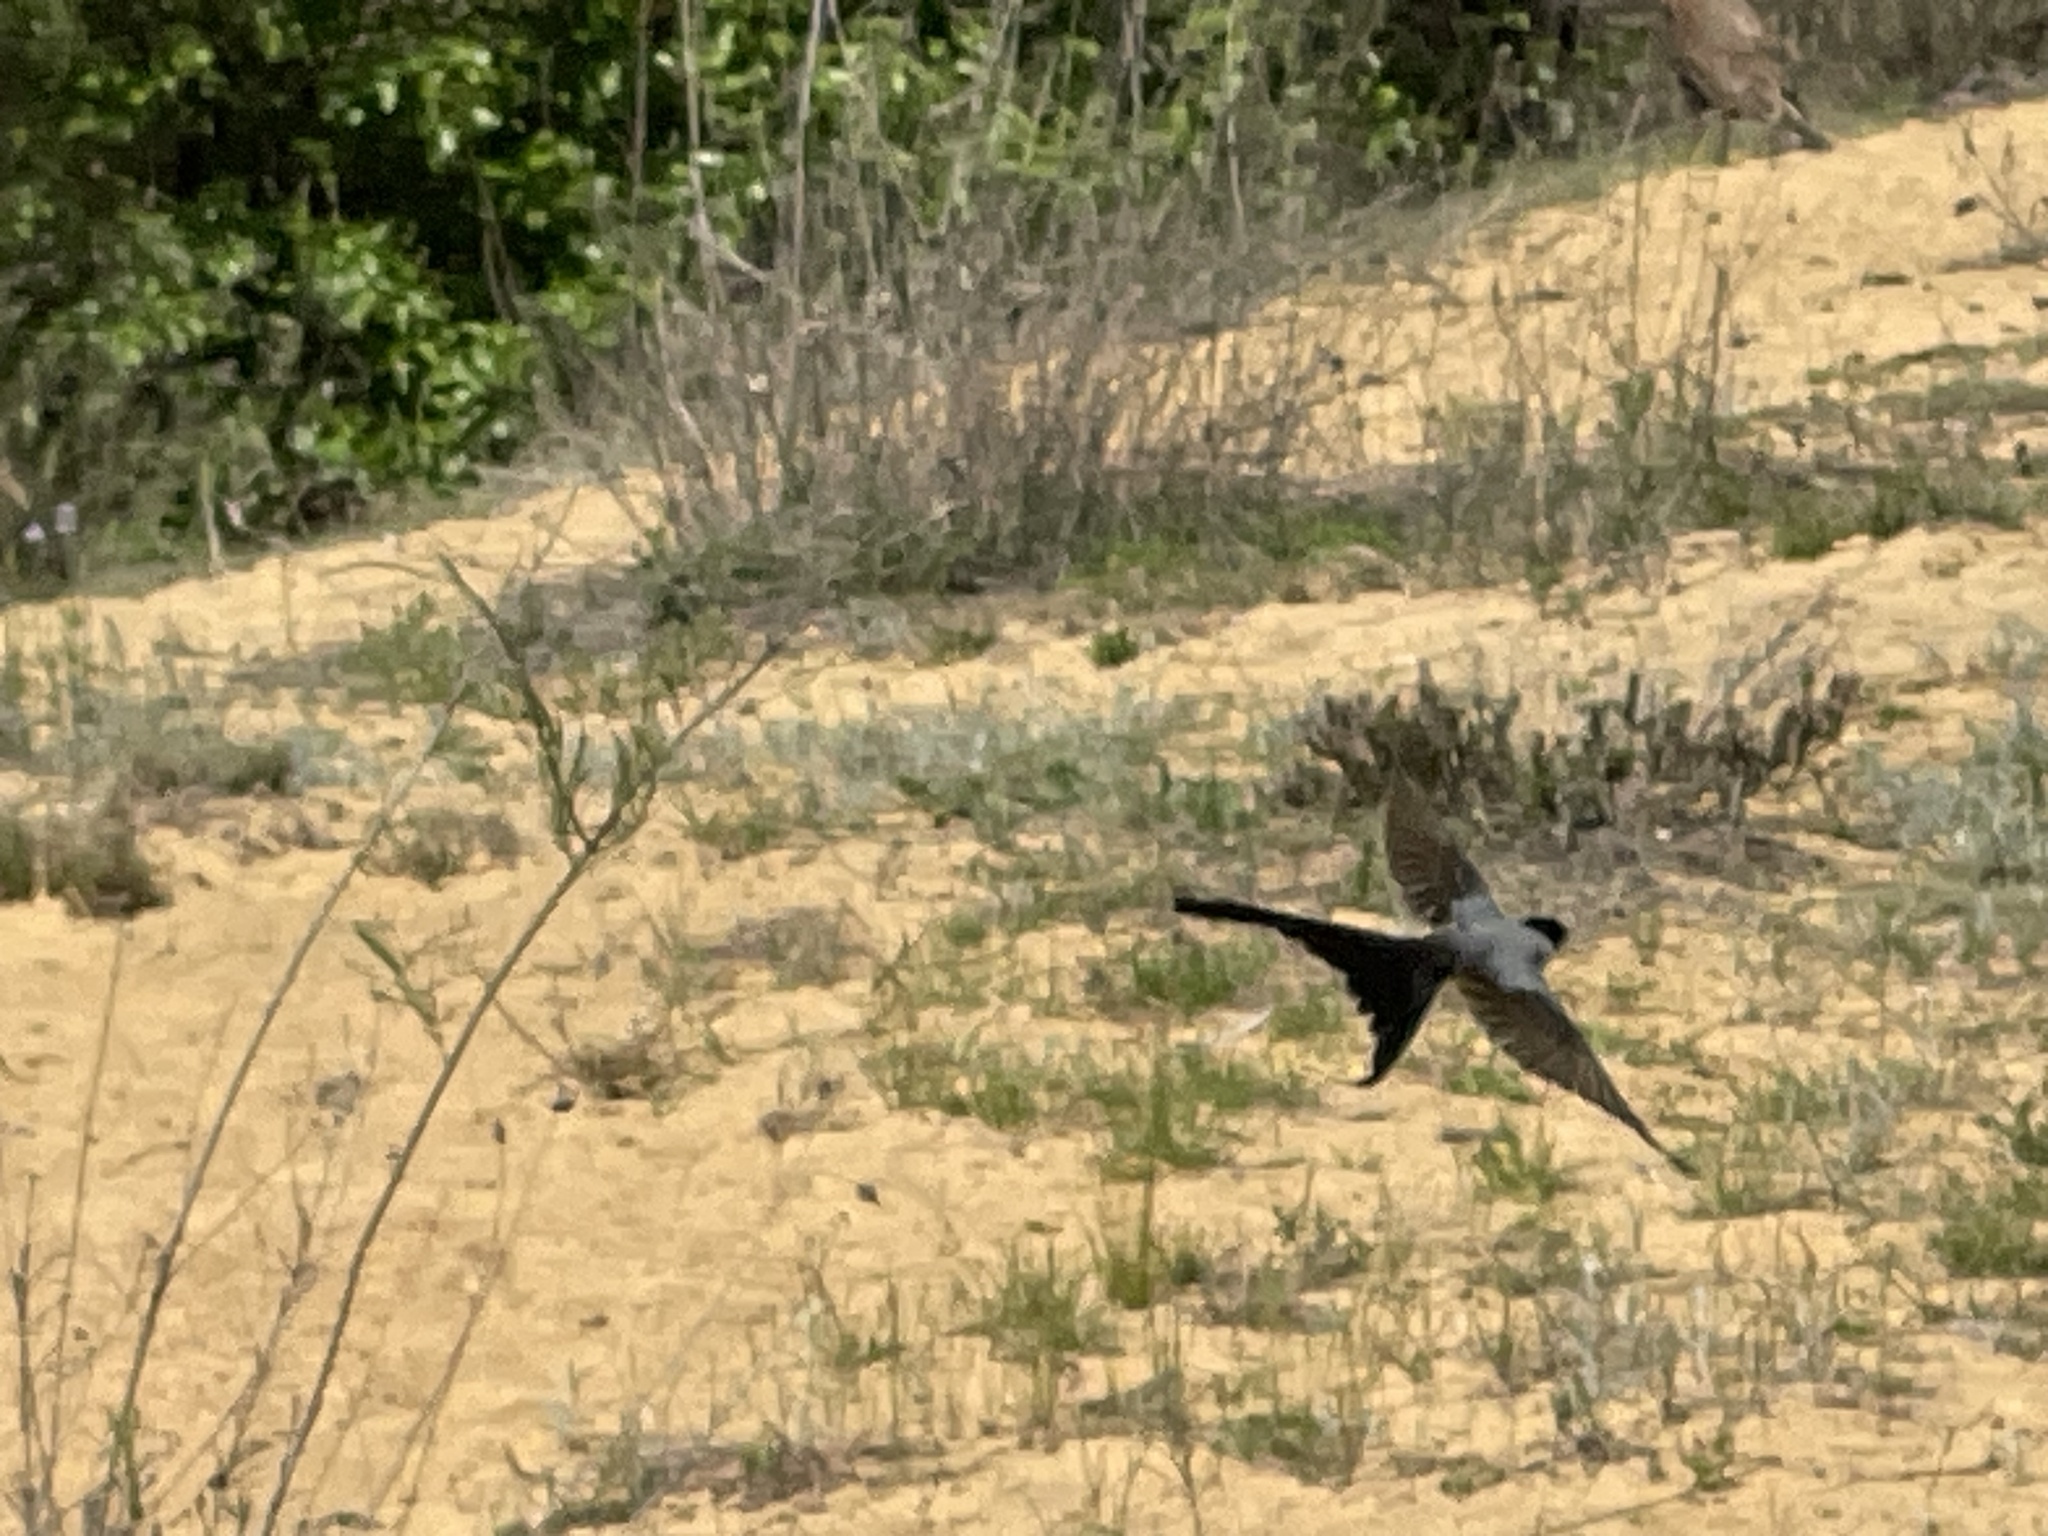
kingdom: Animalia
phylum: Chordata
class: Aves
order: Passeriformes
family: Tyrannidae
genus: Tyrannus
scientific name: Tyrannus savana
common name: Fork-tailed flycatcher
